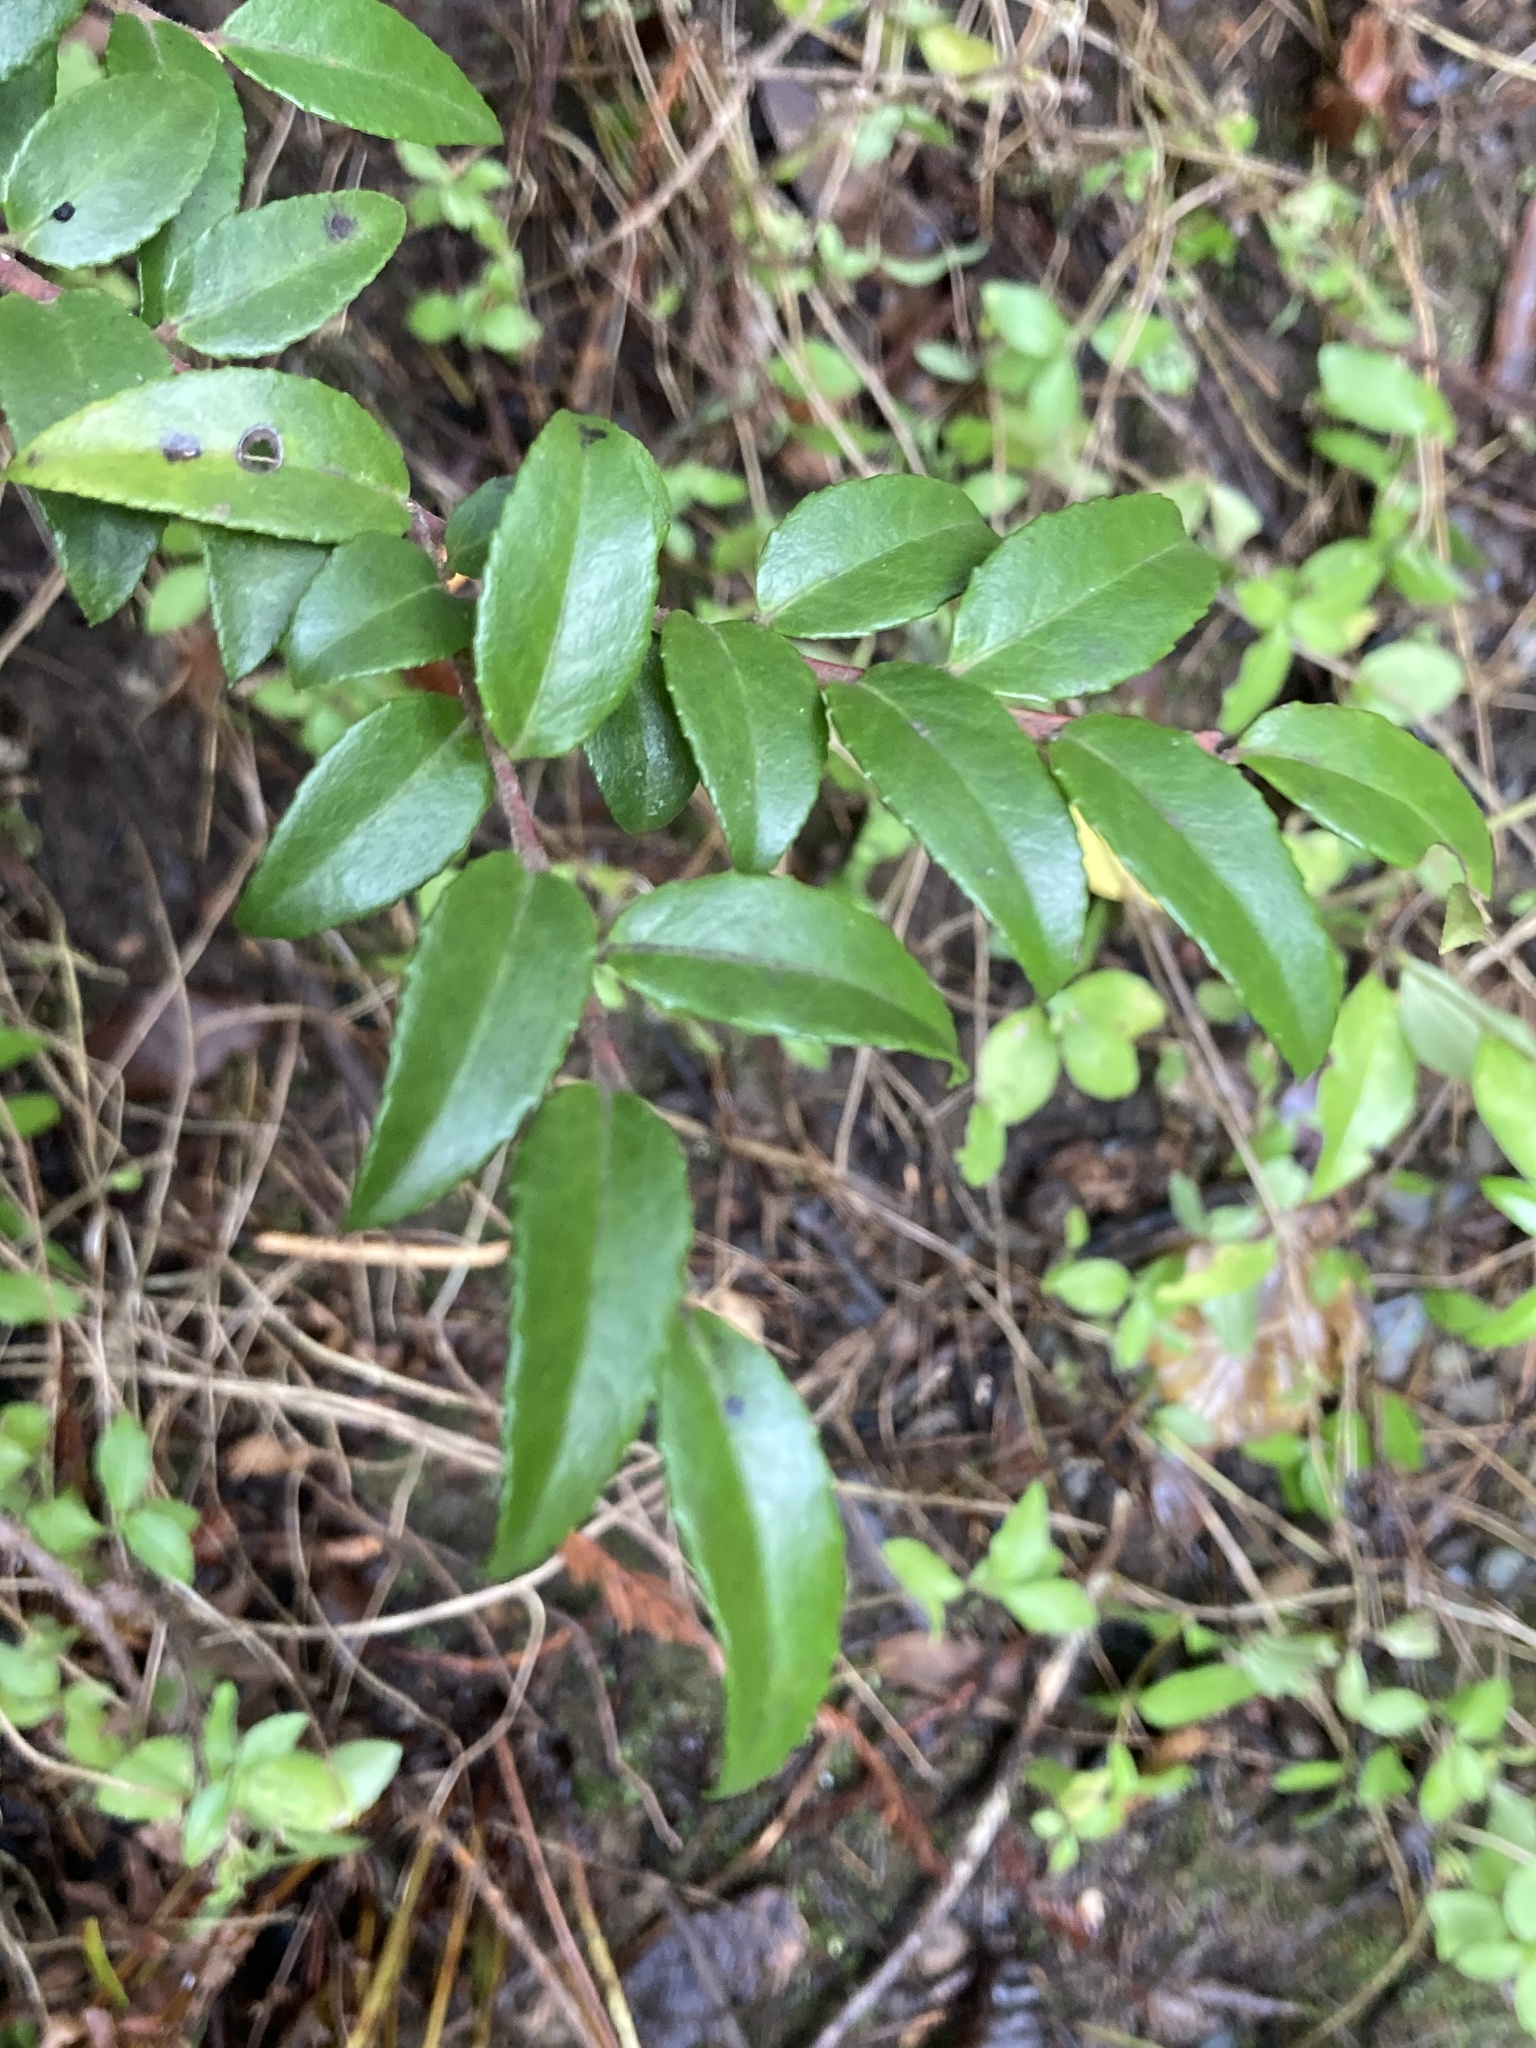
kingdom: Plantae
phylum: Tracheophyta
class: Magnoliopsida
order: Ericales
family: Ericaceae
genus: Vaccinium
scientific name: Vaccinium ovatum
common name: California-huckleberry
